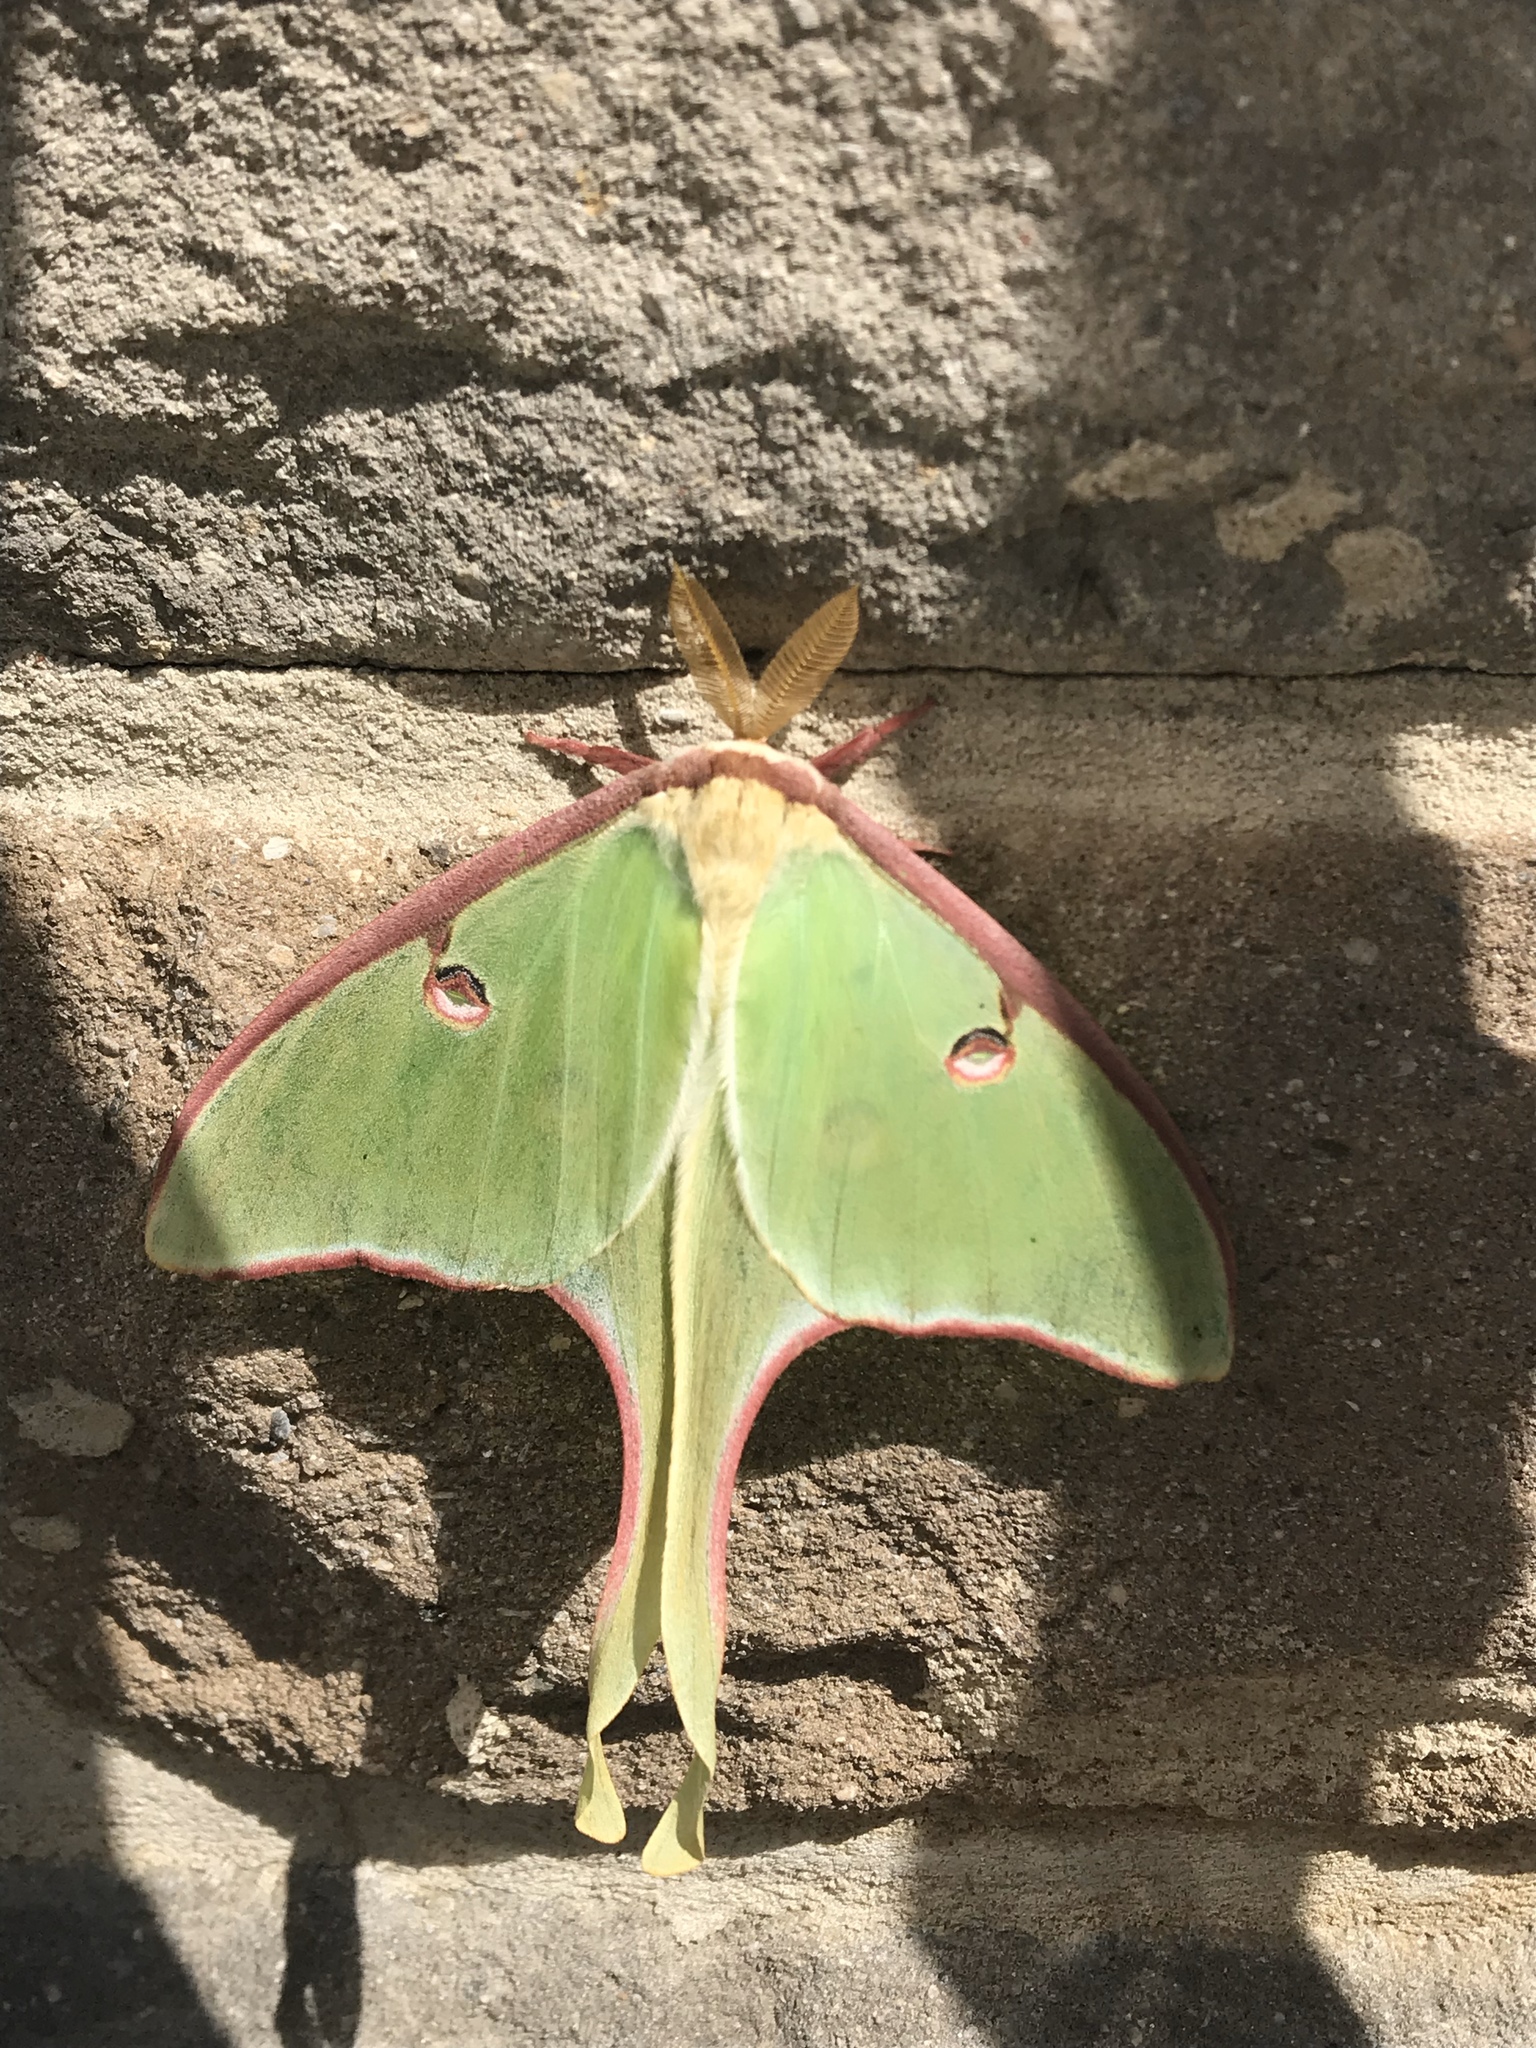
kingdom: Animalia
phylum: Arthropoda
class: Insecta
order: Lepidoptera
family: Saturniidae
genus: Actias
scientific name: Actias luna
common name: Luna moth
